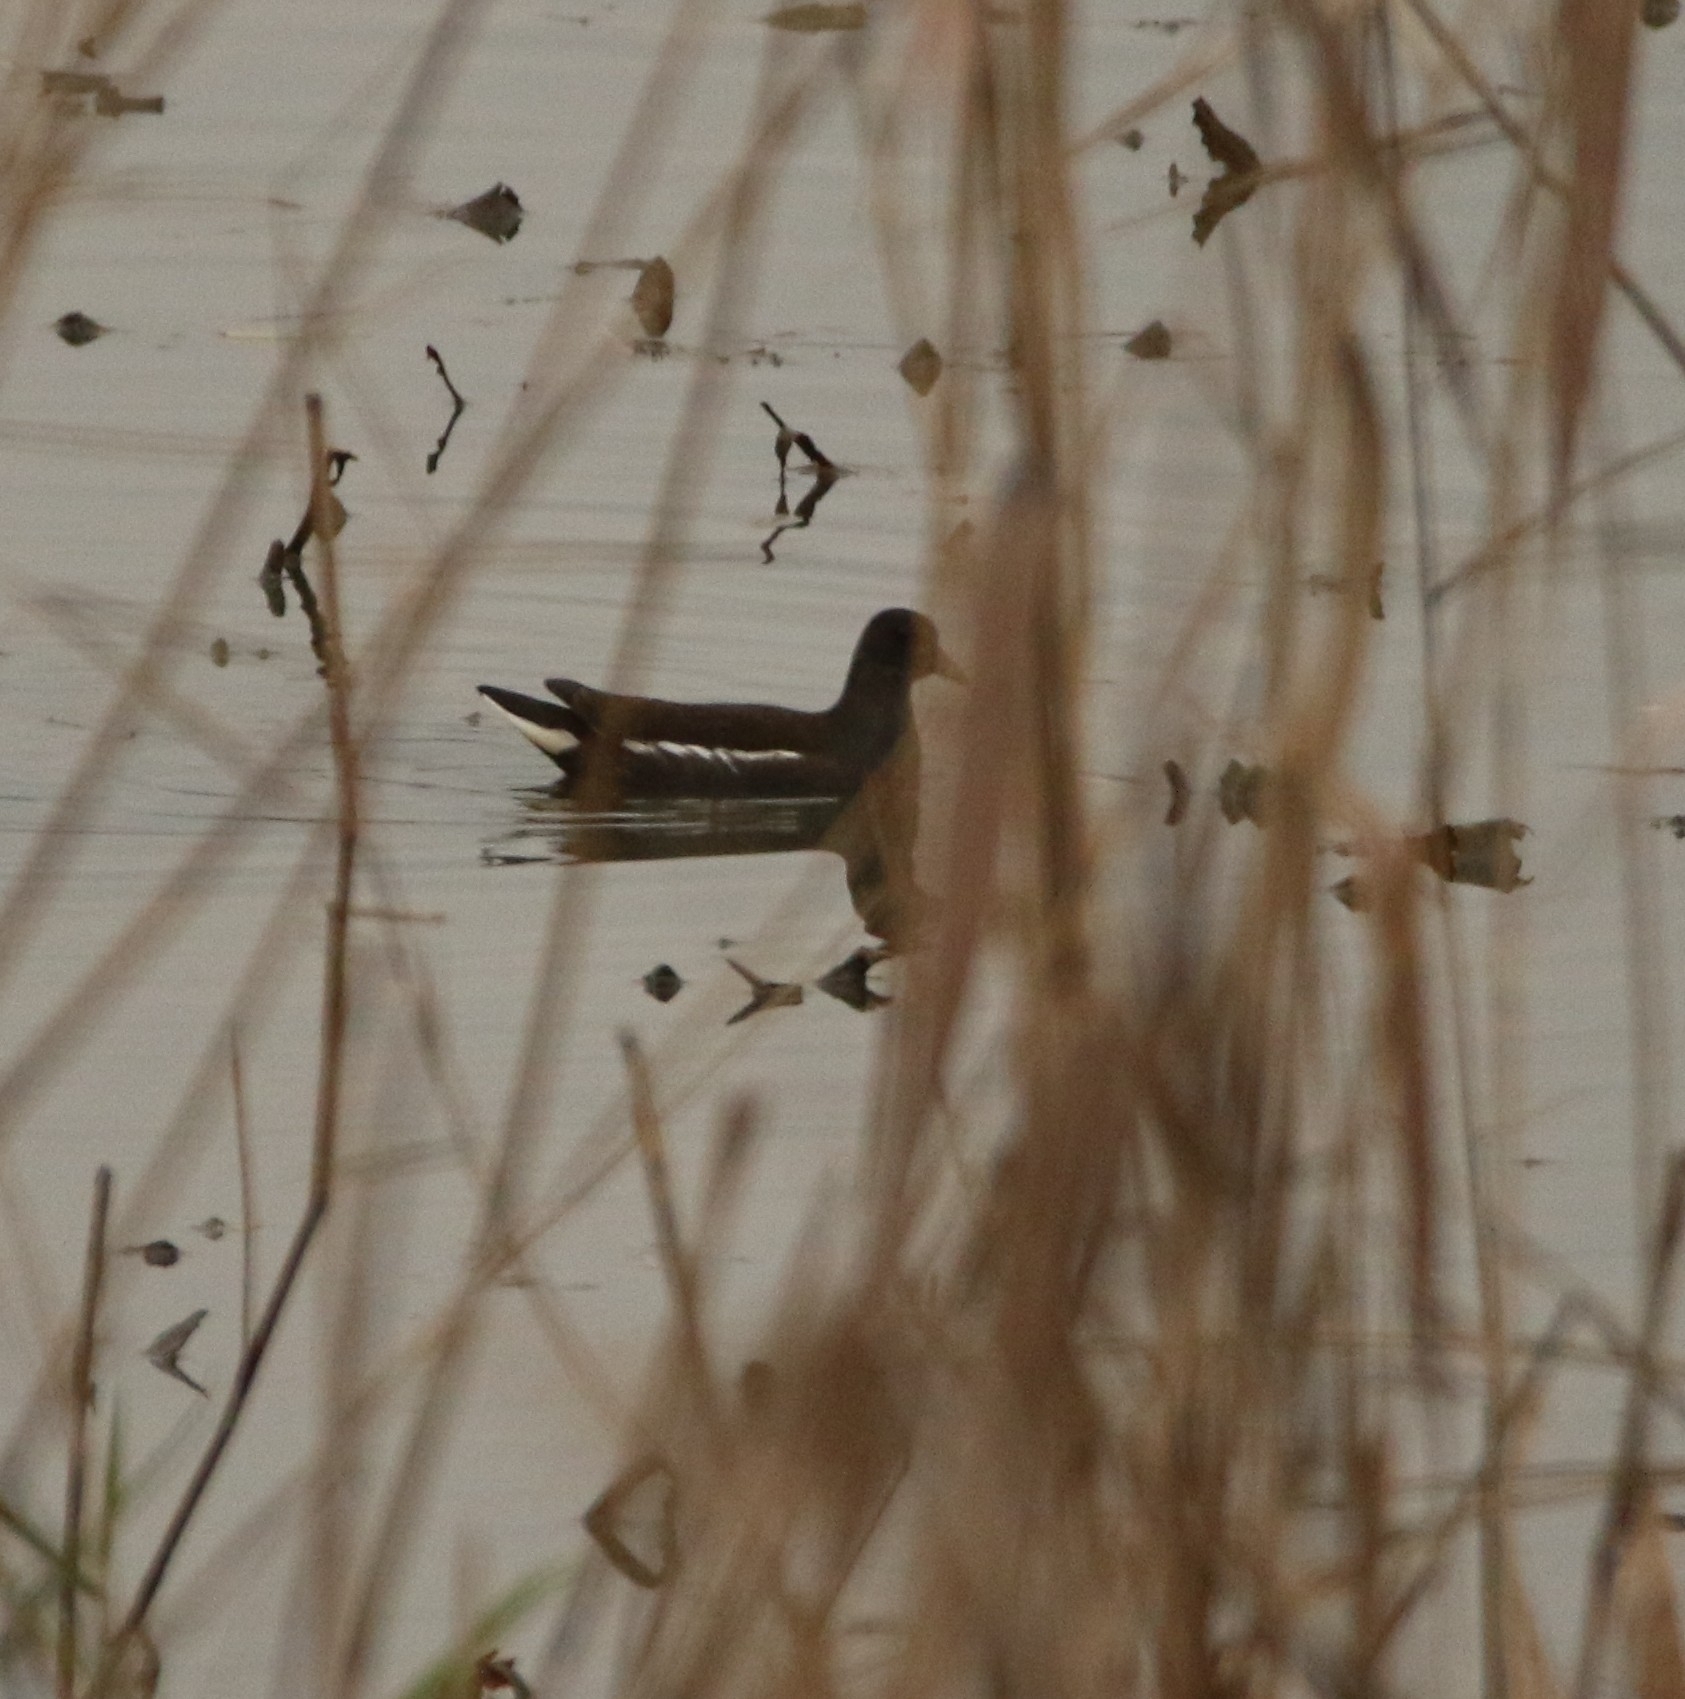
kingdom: Animalia
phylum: Chordata
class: Aves
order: Gruiformes
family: Rallidae
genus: Gallinula
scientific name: Gallinula chloropus
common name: Common moorhen
